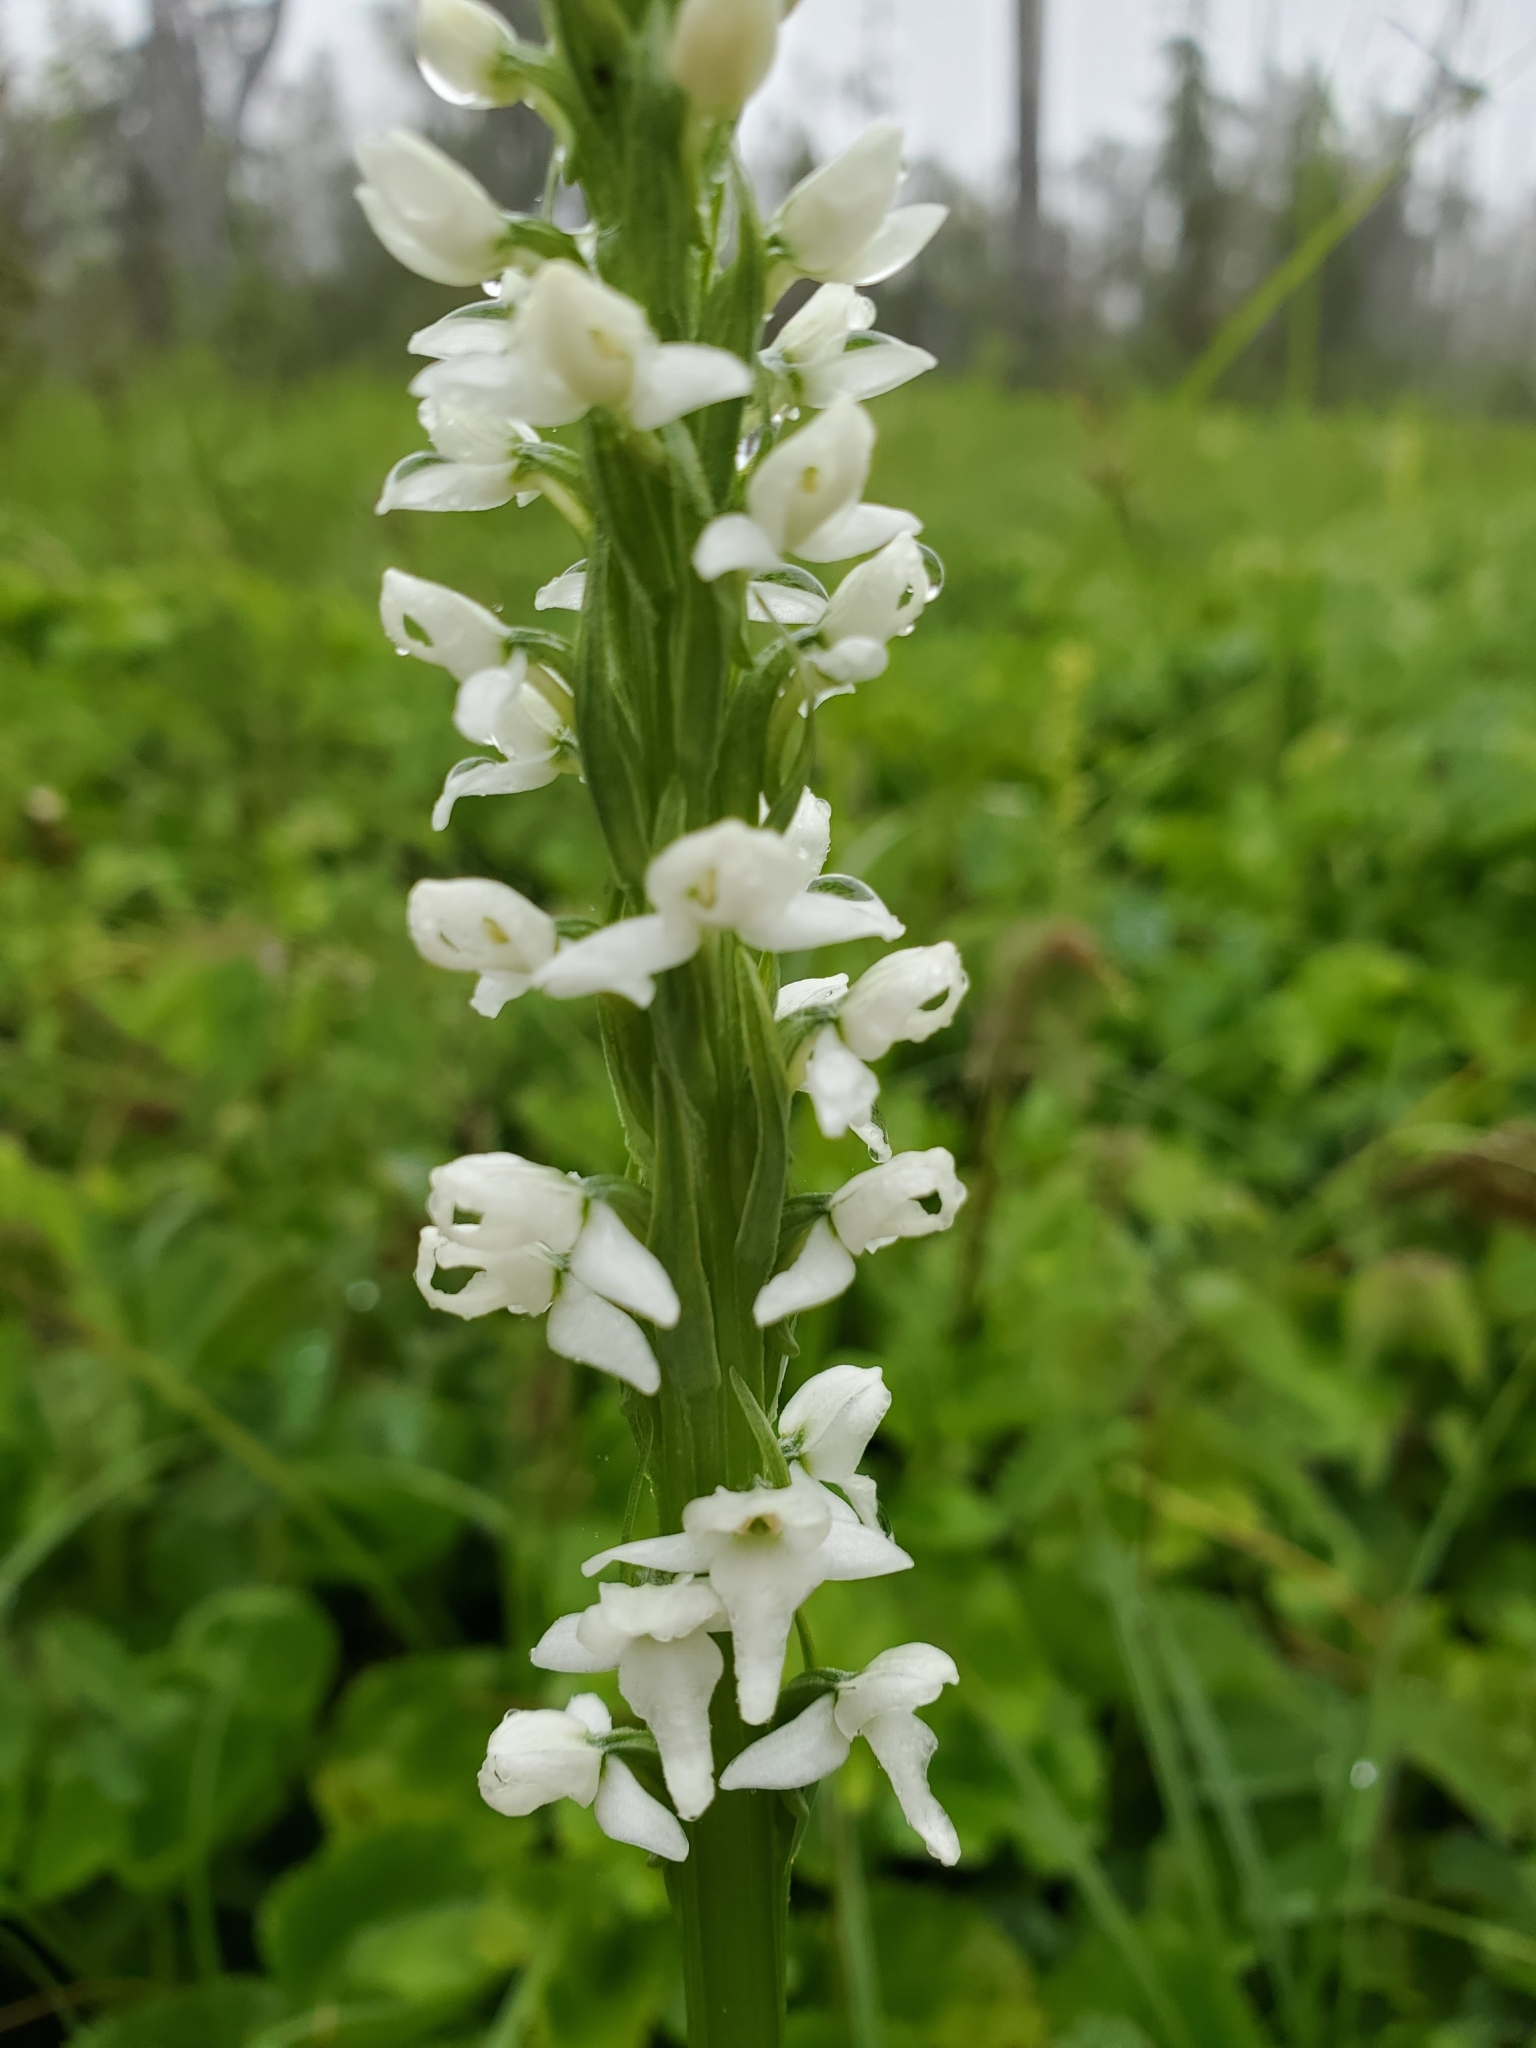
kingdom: Plantae
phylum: Tracheophyta
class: Liliopsida
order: Asparagales
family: Orchidaceae
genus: Platanthera
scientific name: Platanthera dilatata
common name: Bog candles
